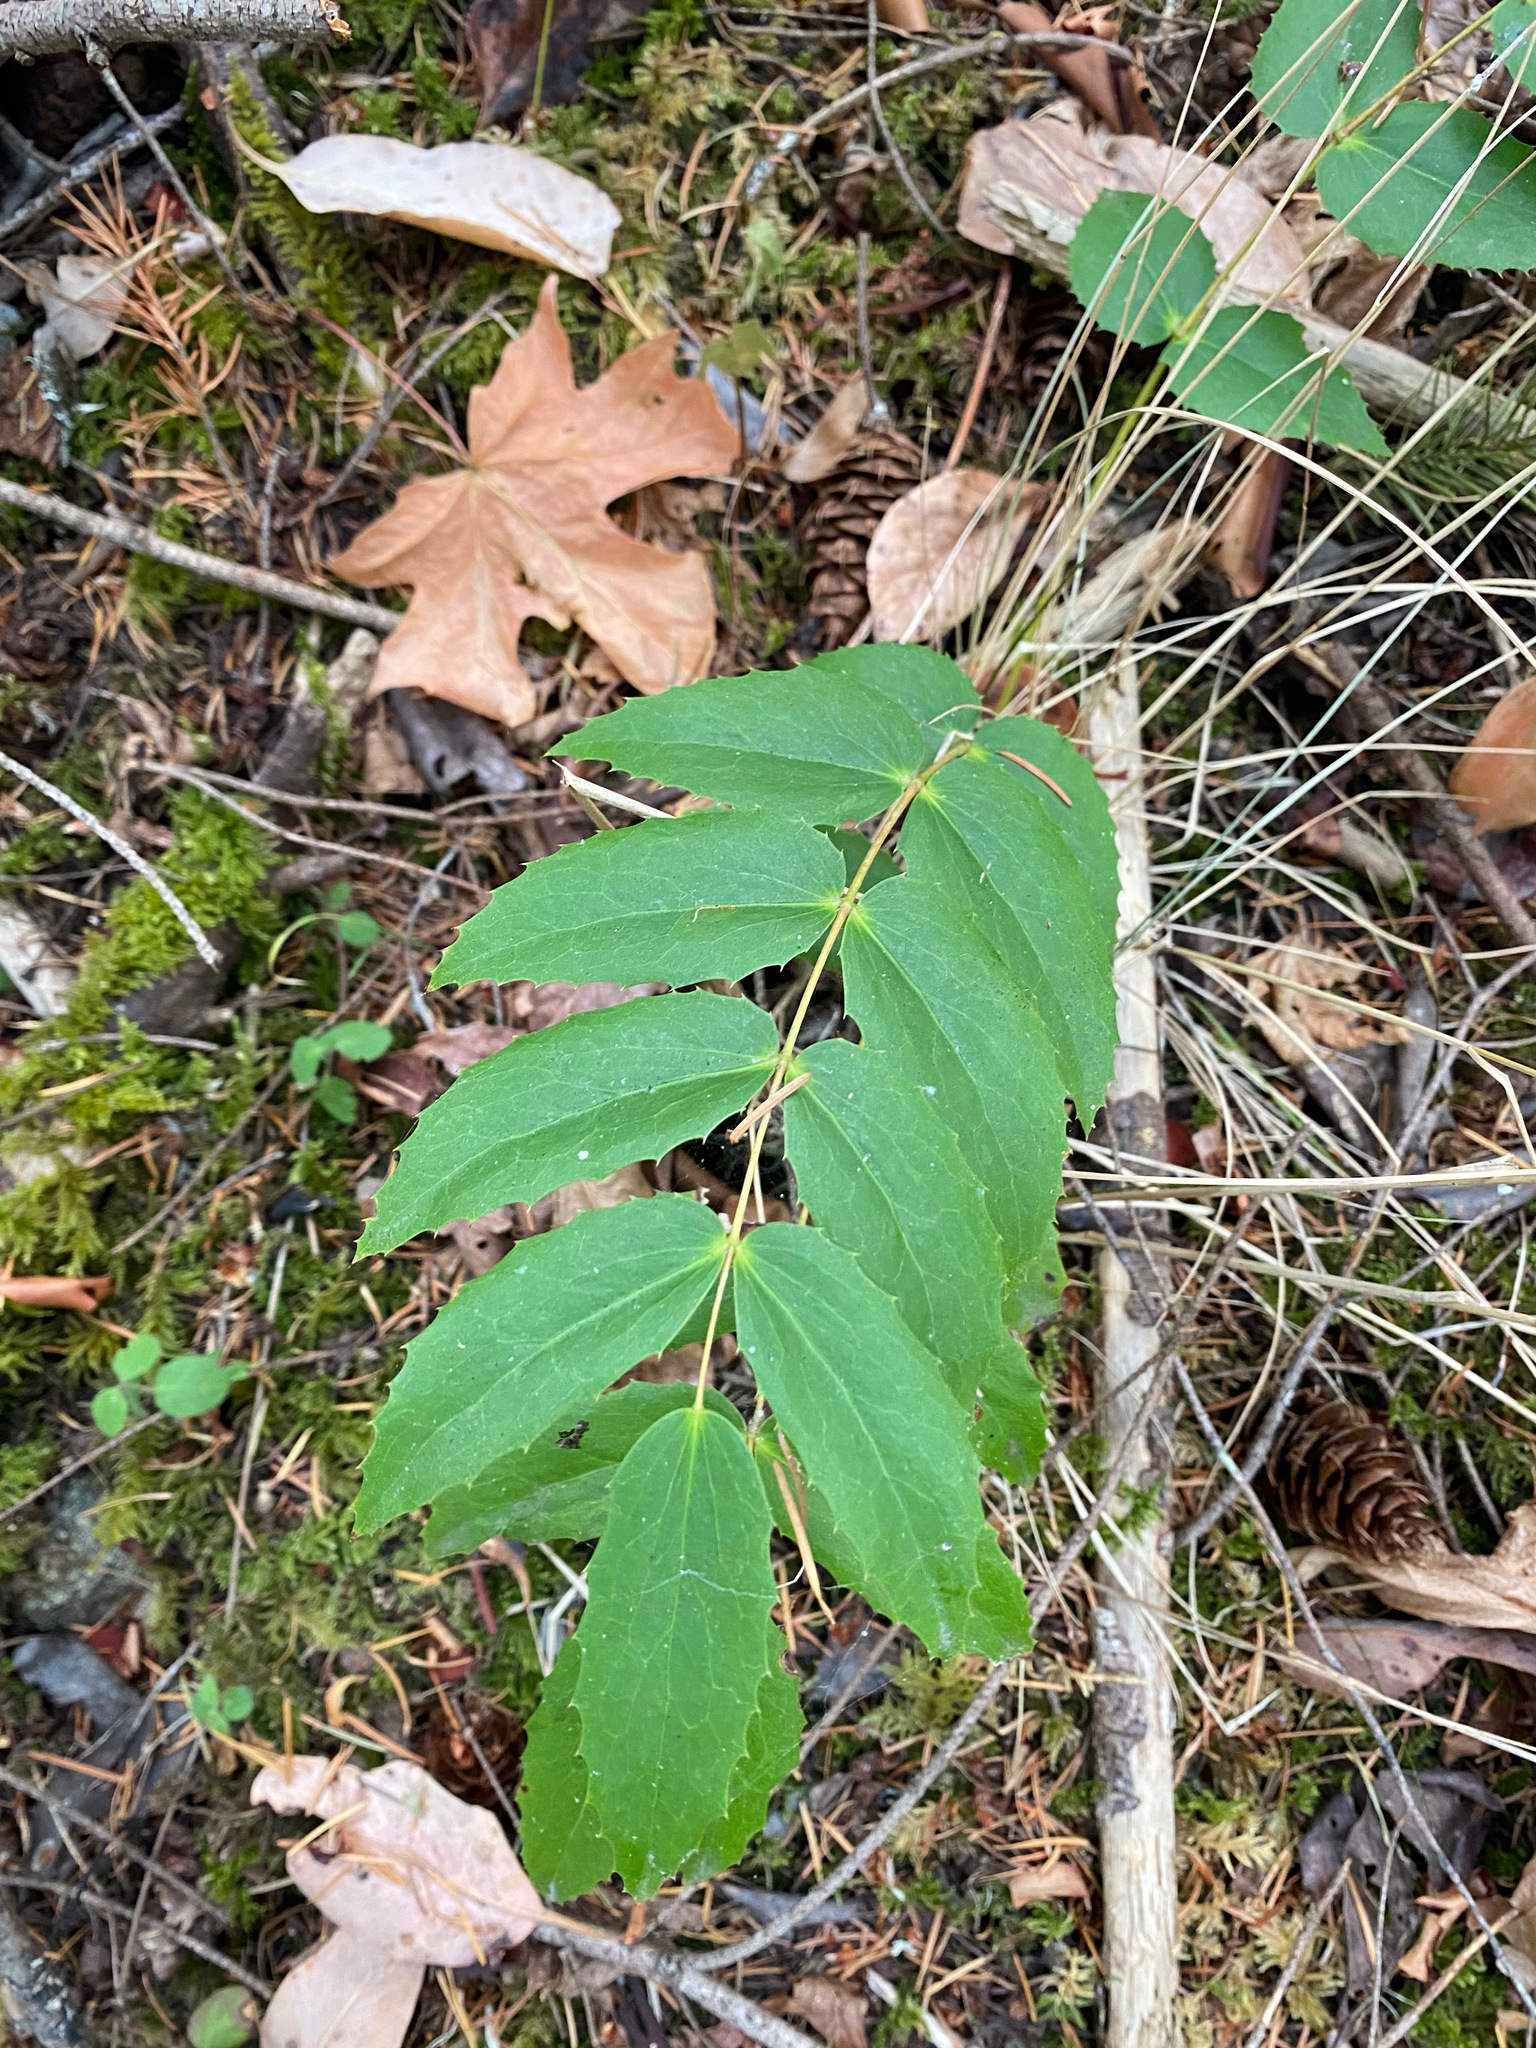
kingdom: Plantae
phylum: Tracheophyta
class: Magnoliopsida
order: Ranunculales
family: Berberidaceae
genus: Mahonia
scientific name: Mahonia nervosa
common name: Cascade oregon-grape
